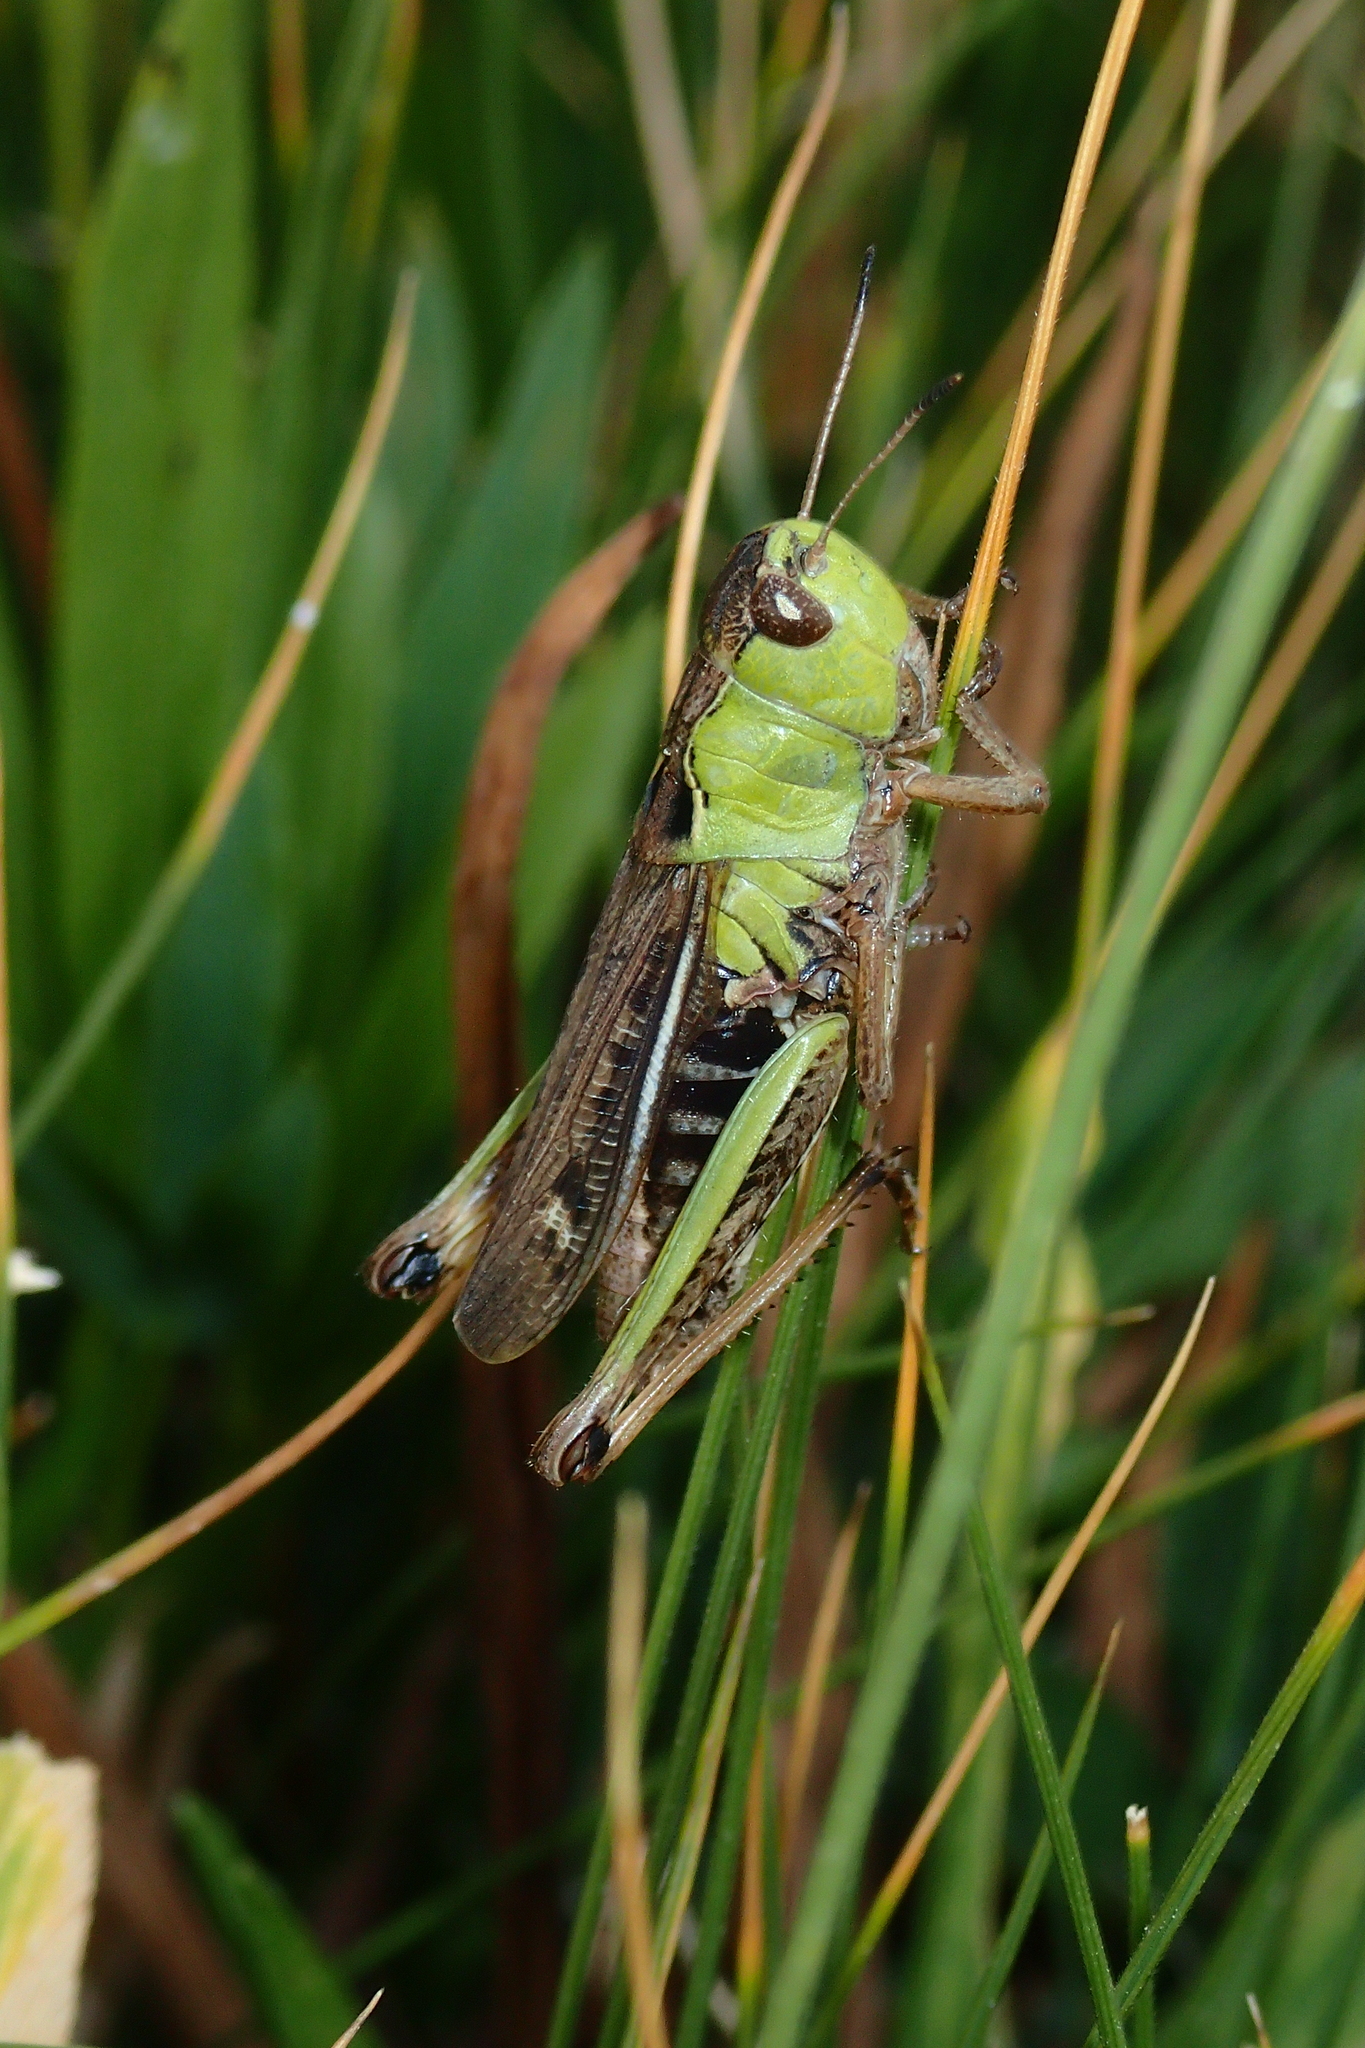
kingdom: Animalia
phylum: Arthropoda
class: Insecta
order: Orthoptera
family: Acrididae
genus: Gomphocerus
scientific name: Gomphocerus sibiricus
